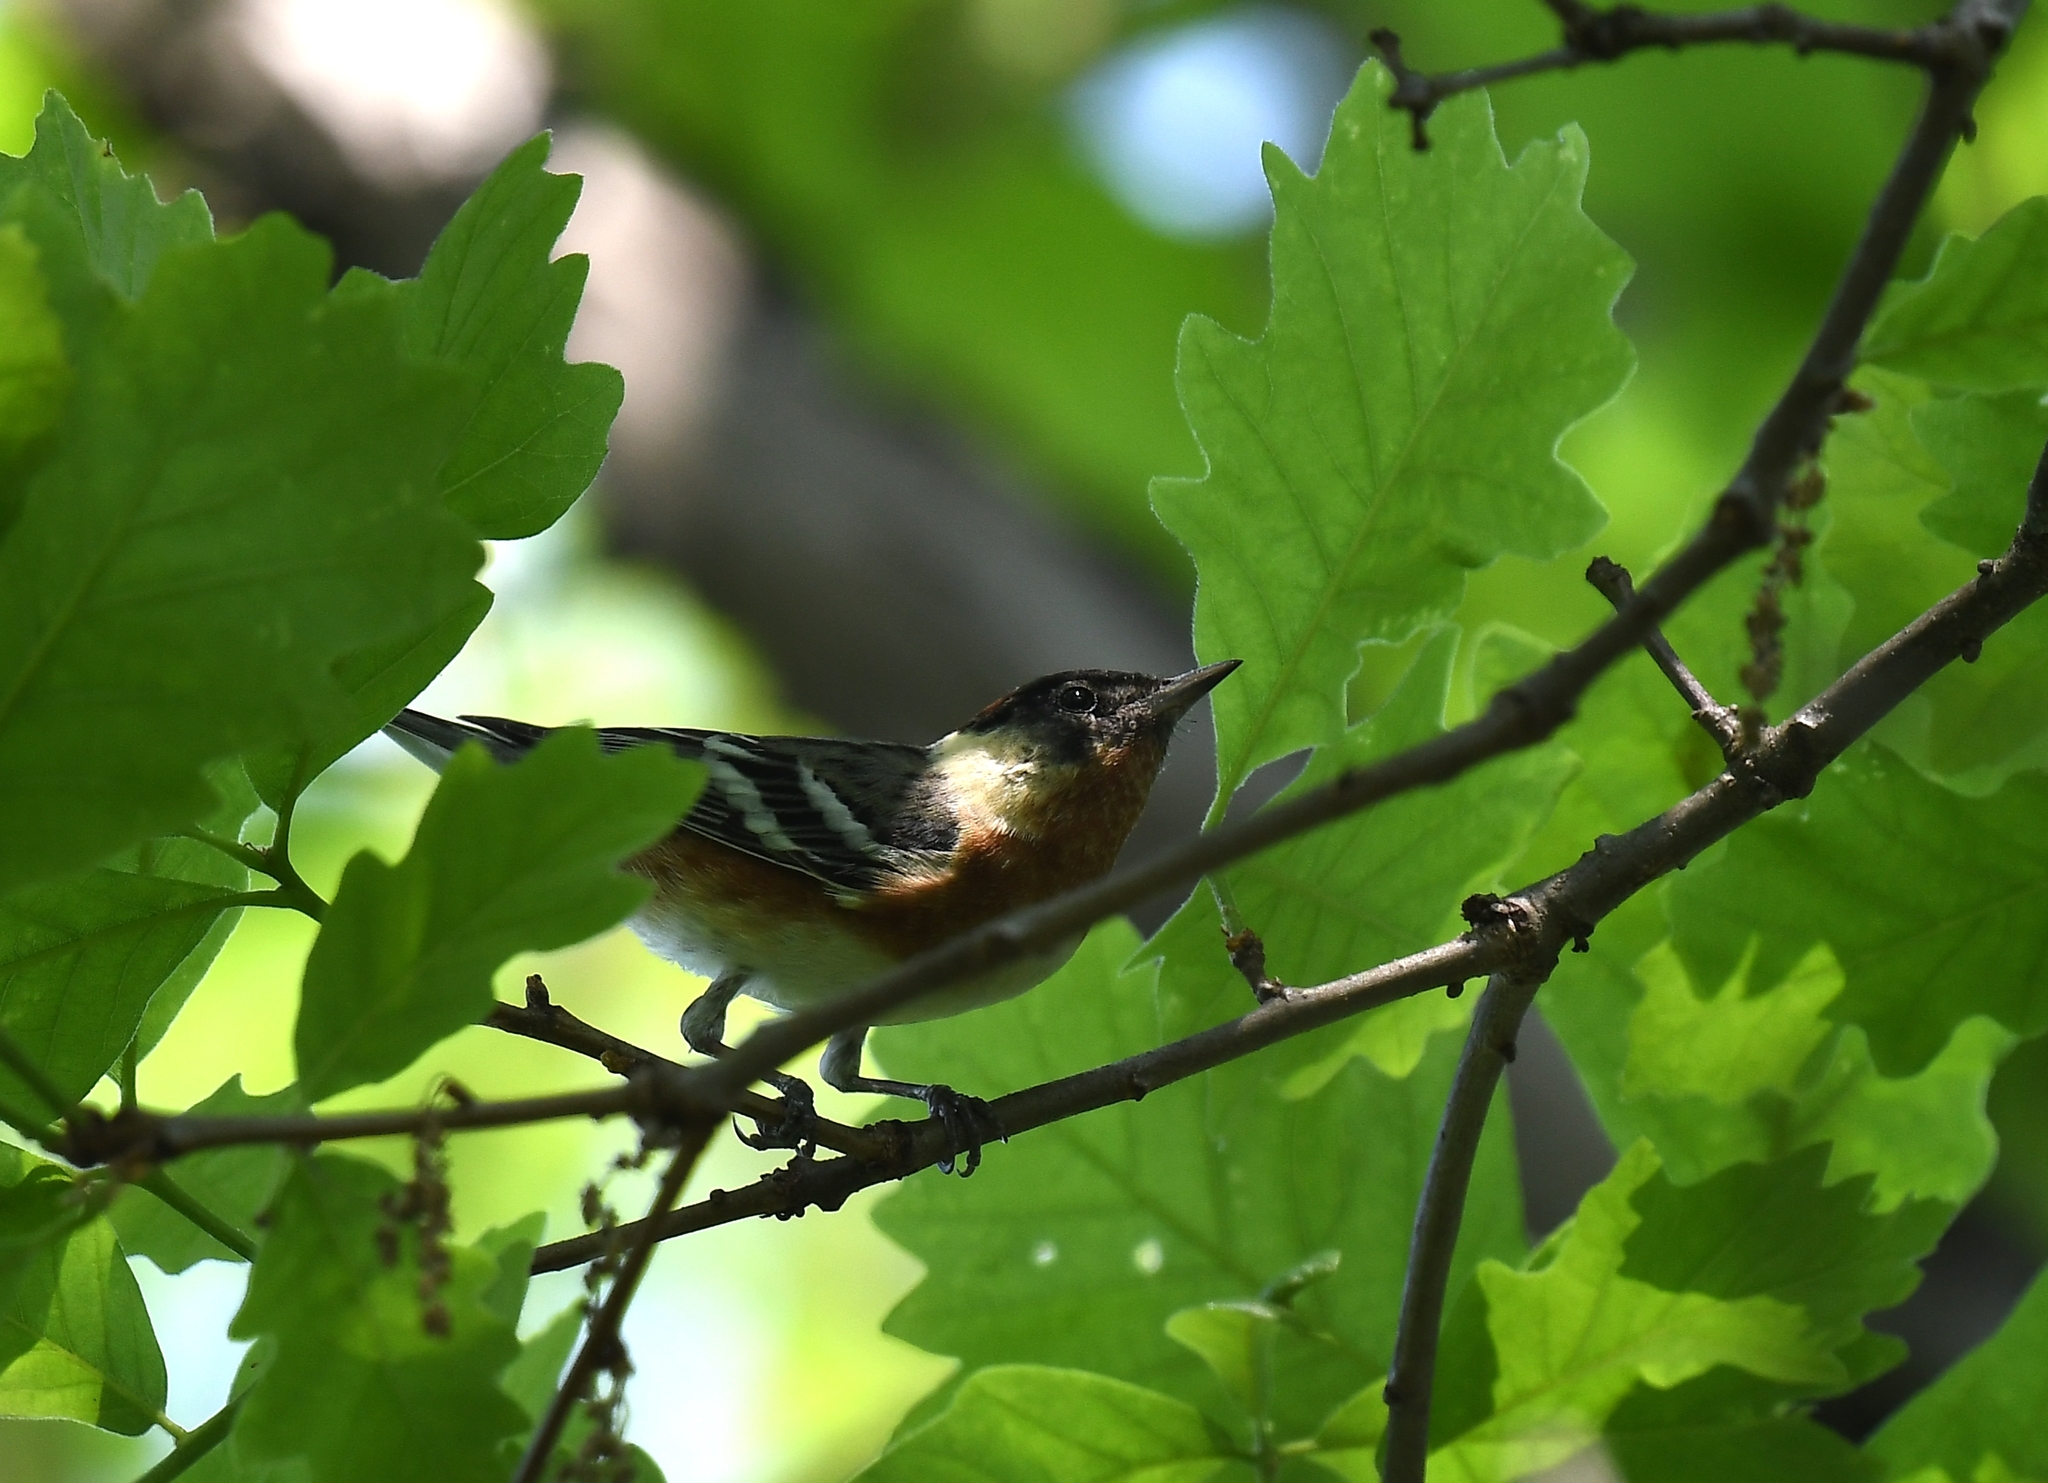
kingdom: Animalia
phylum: Chordata
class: Aves
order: Passeriformes
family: Parulidae
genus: Setophaga
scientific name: Setophaga castanea
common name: Bay-breasted warbler
